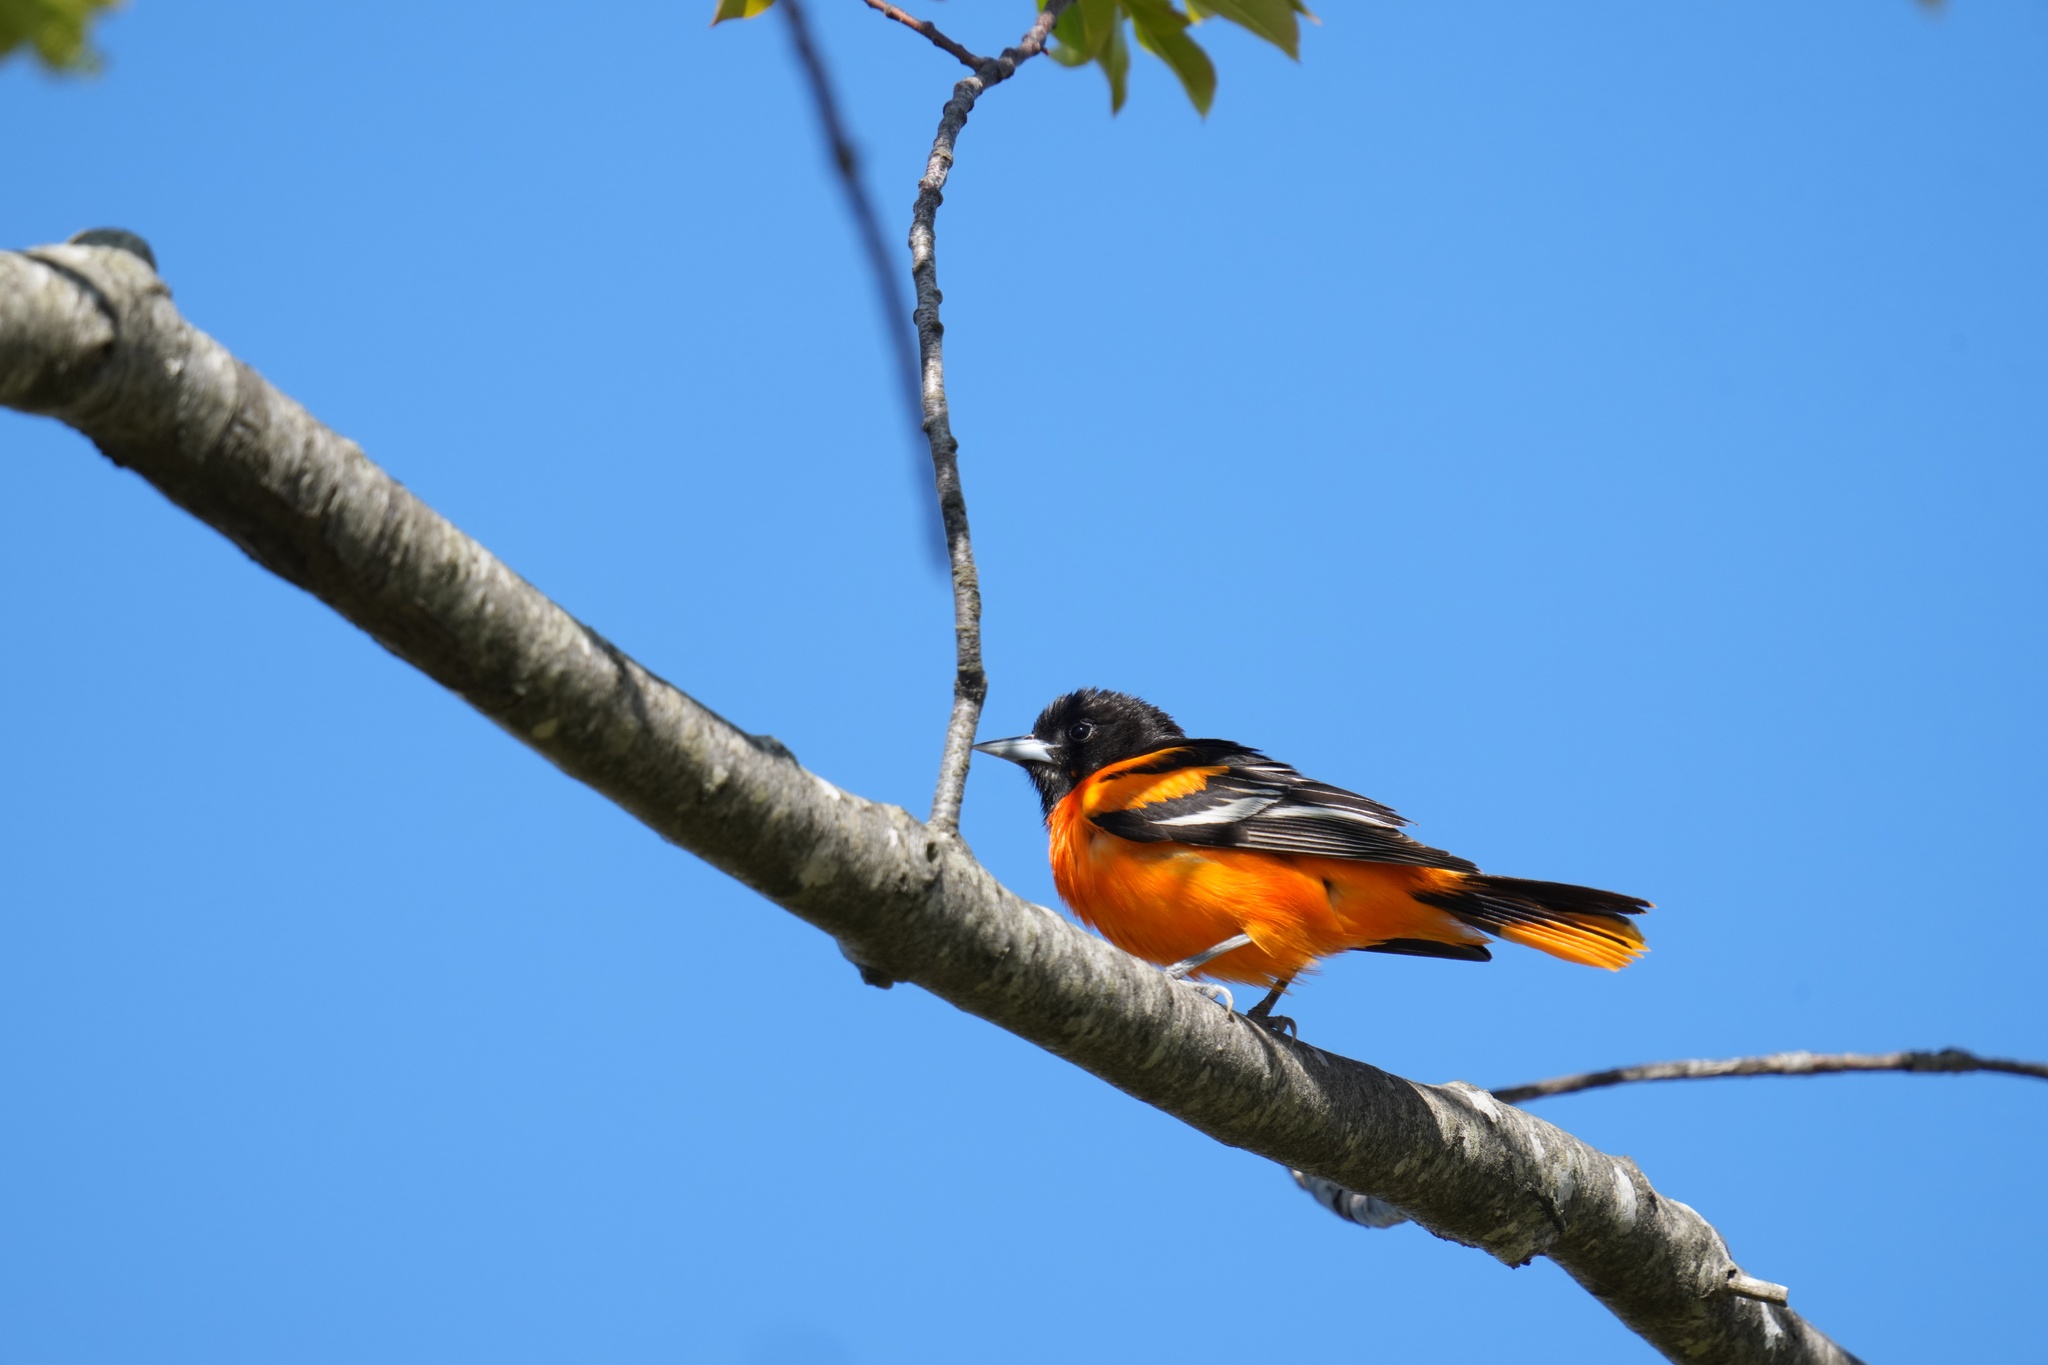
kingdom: Animalia
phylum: Chordata
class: Aves
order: Passeriformes
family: Icteridae
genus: Icterus
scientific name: Icterus galbula
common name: Baltimore oriole
